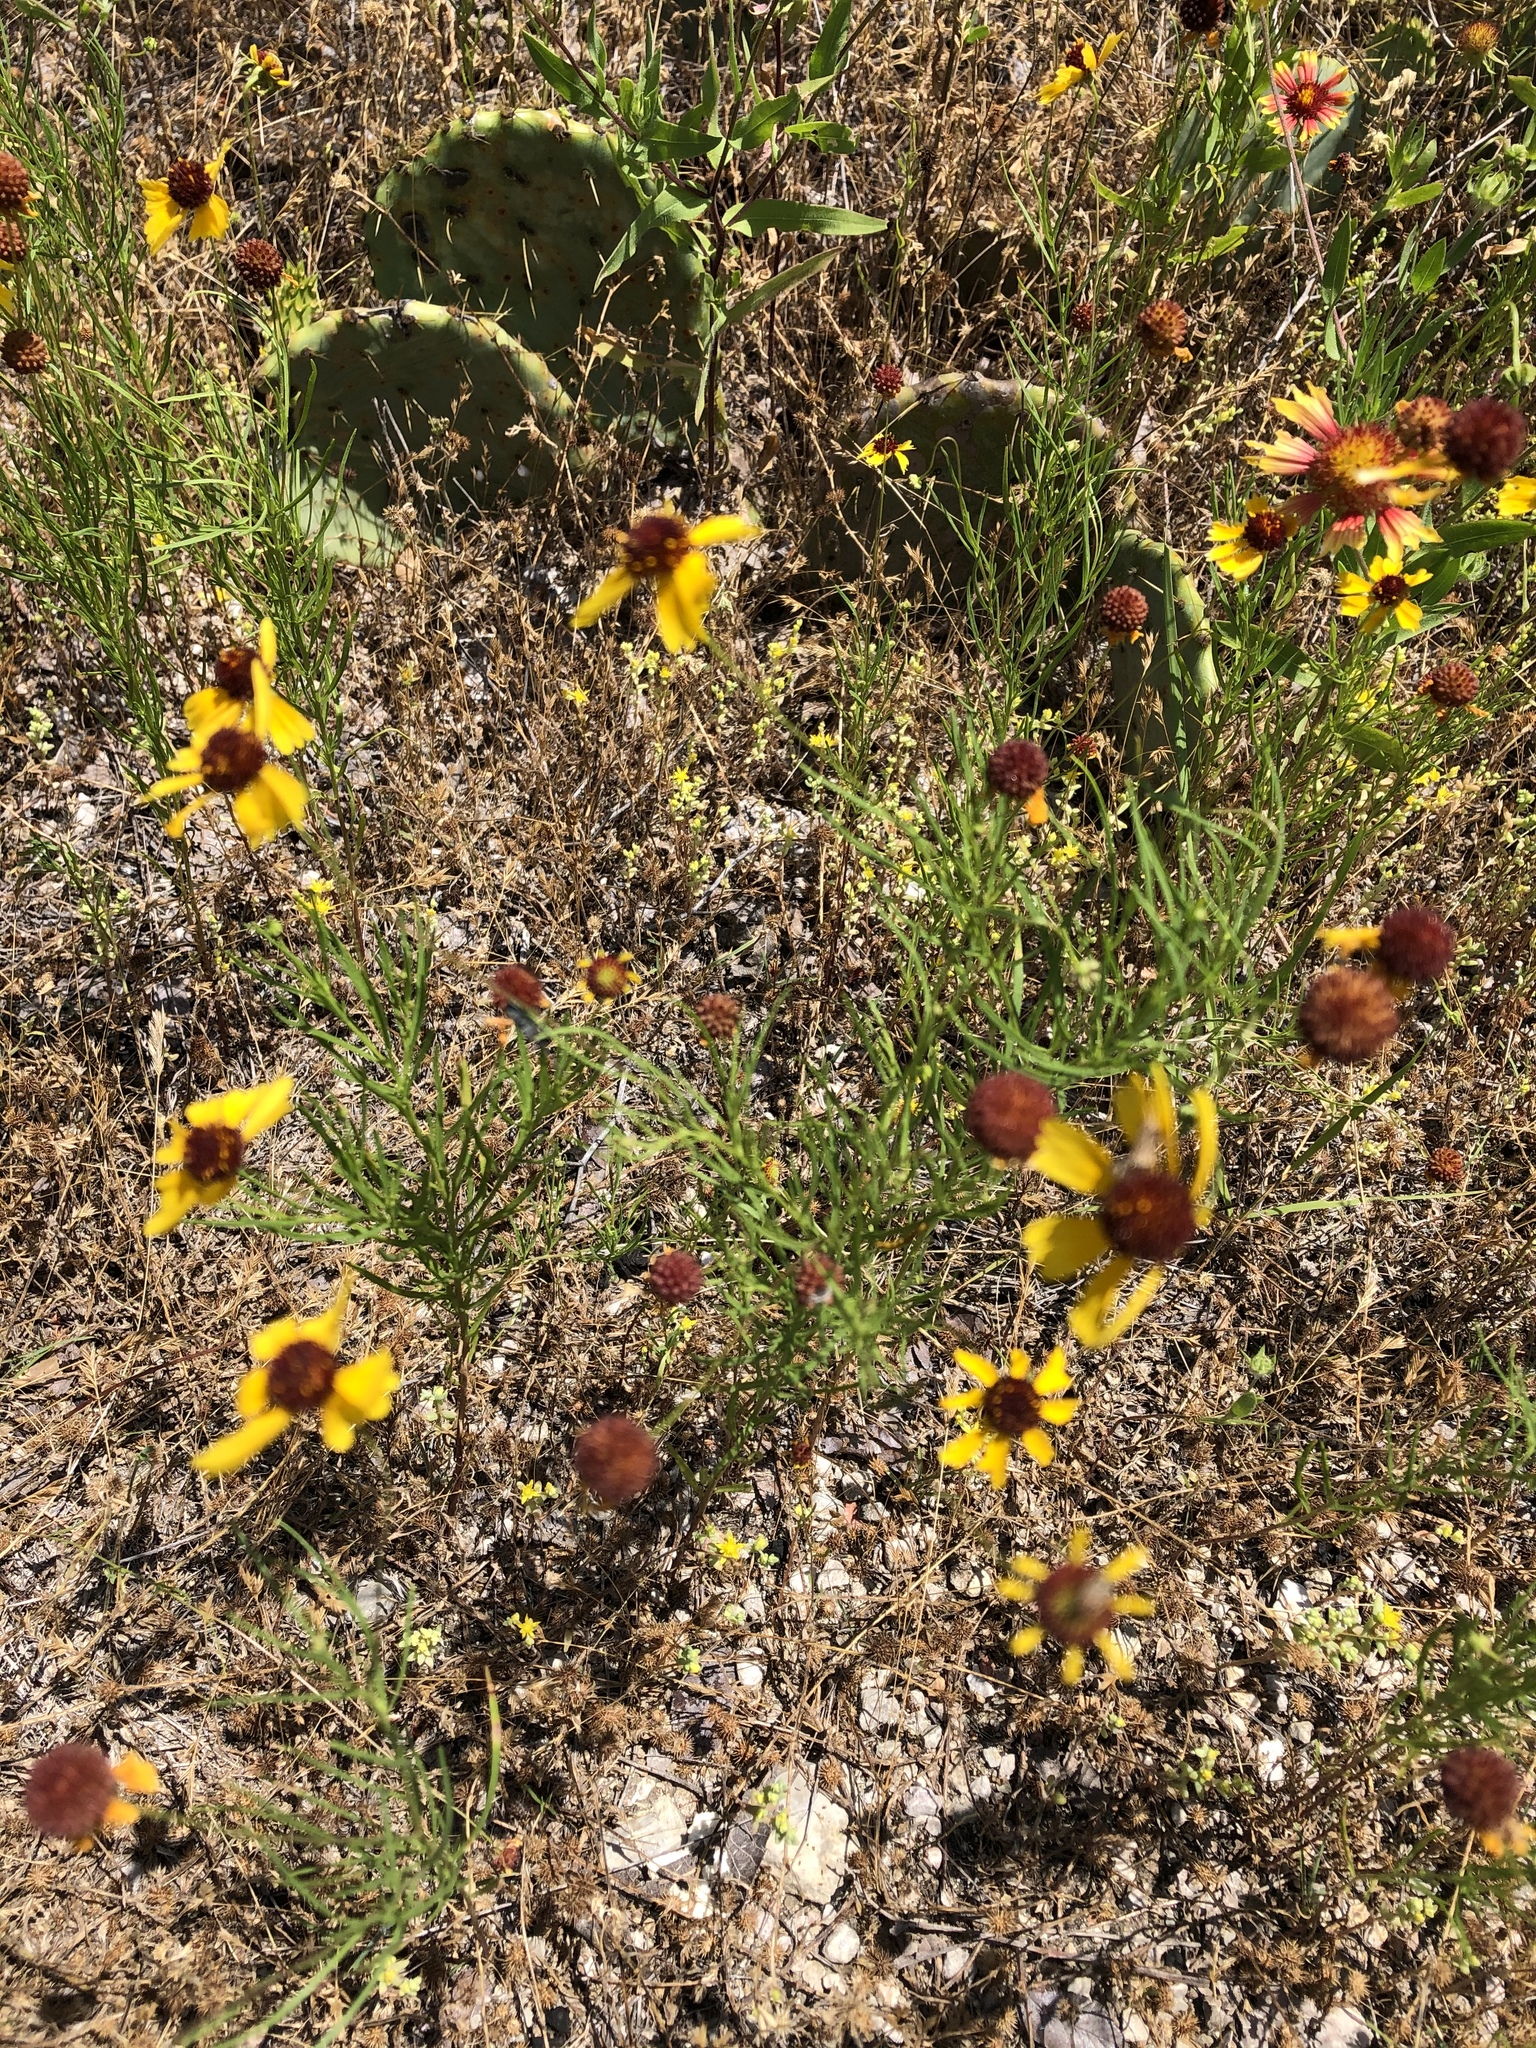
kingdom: Plantae
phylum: Tracheophyta
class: Magnoliopsida
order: Asterales
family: Asteraceae
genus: Helenium
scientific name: Helenium amarum
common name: Bitter sneezeweed
